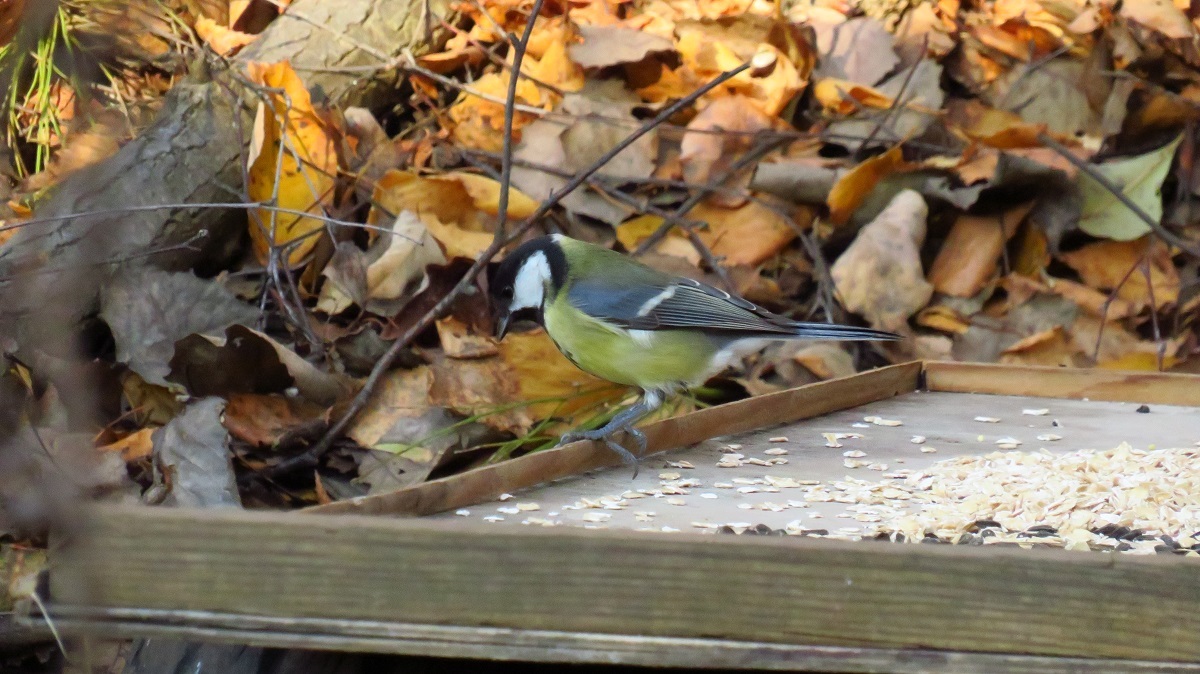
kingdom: Animalia
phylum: Chordata
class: Aves
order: Passeriformes
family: Paridae
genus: Parus
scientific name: Parus major
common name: Great tit
